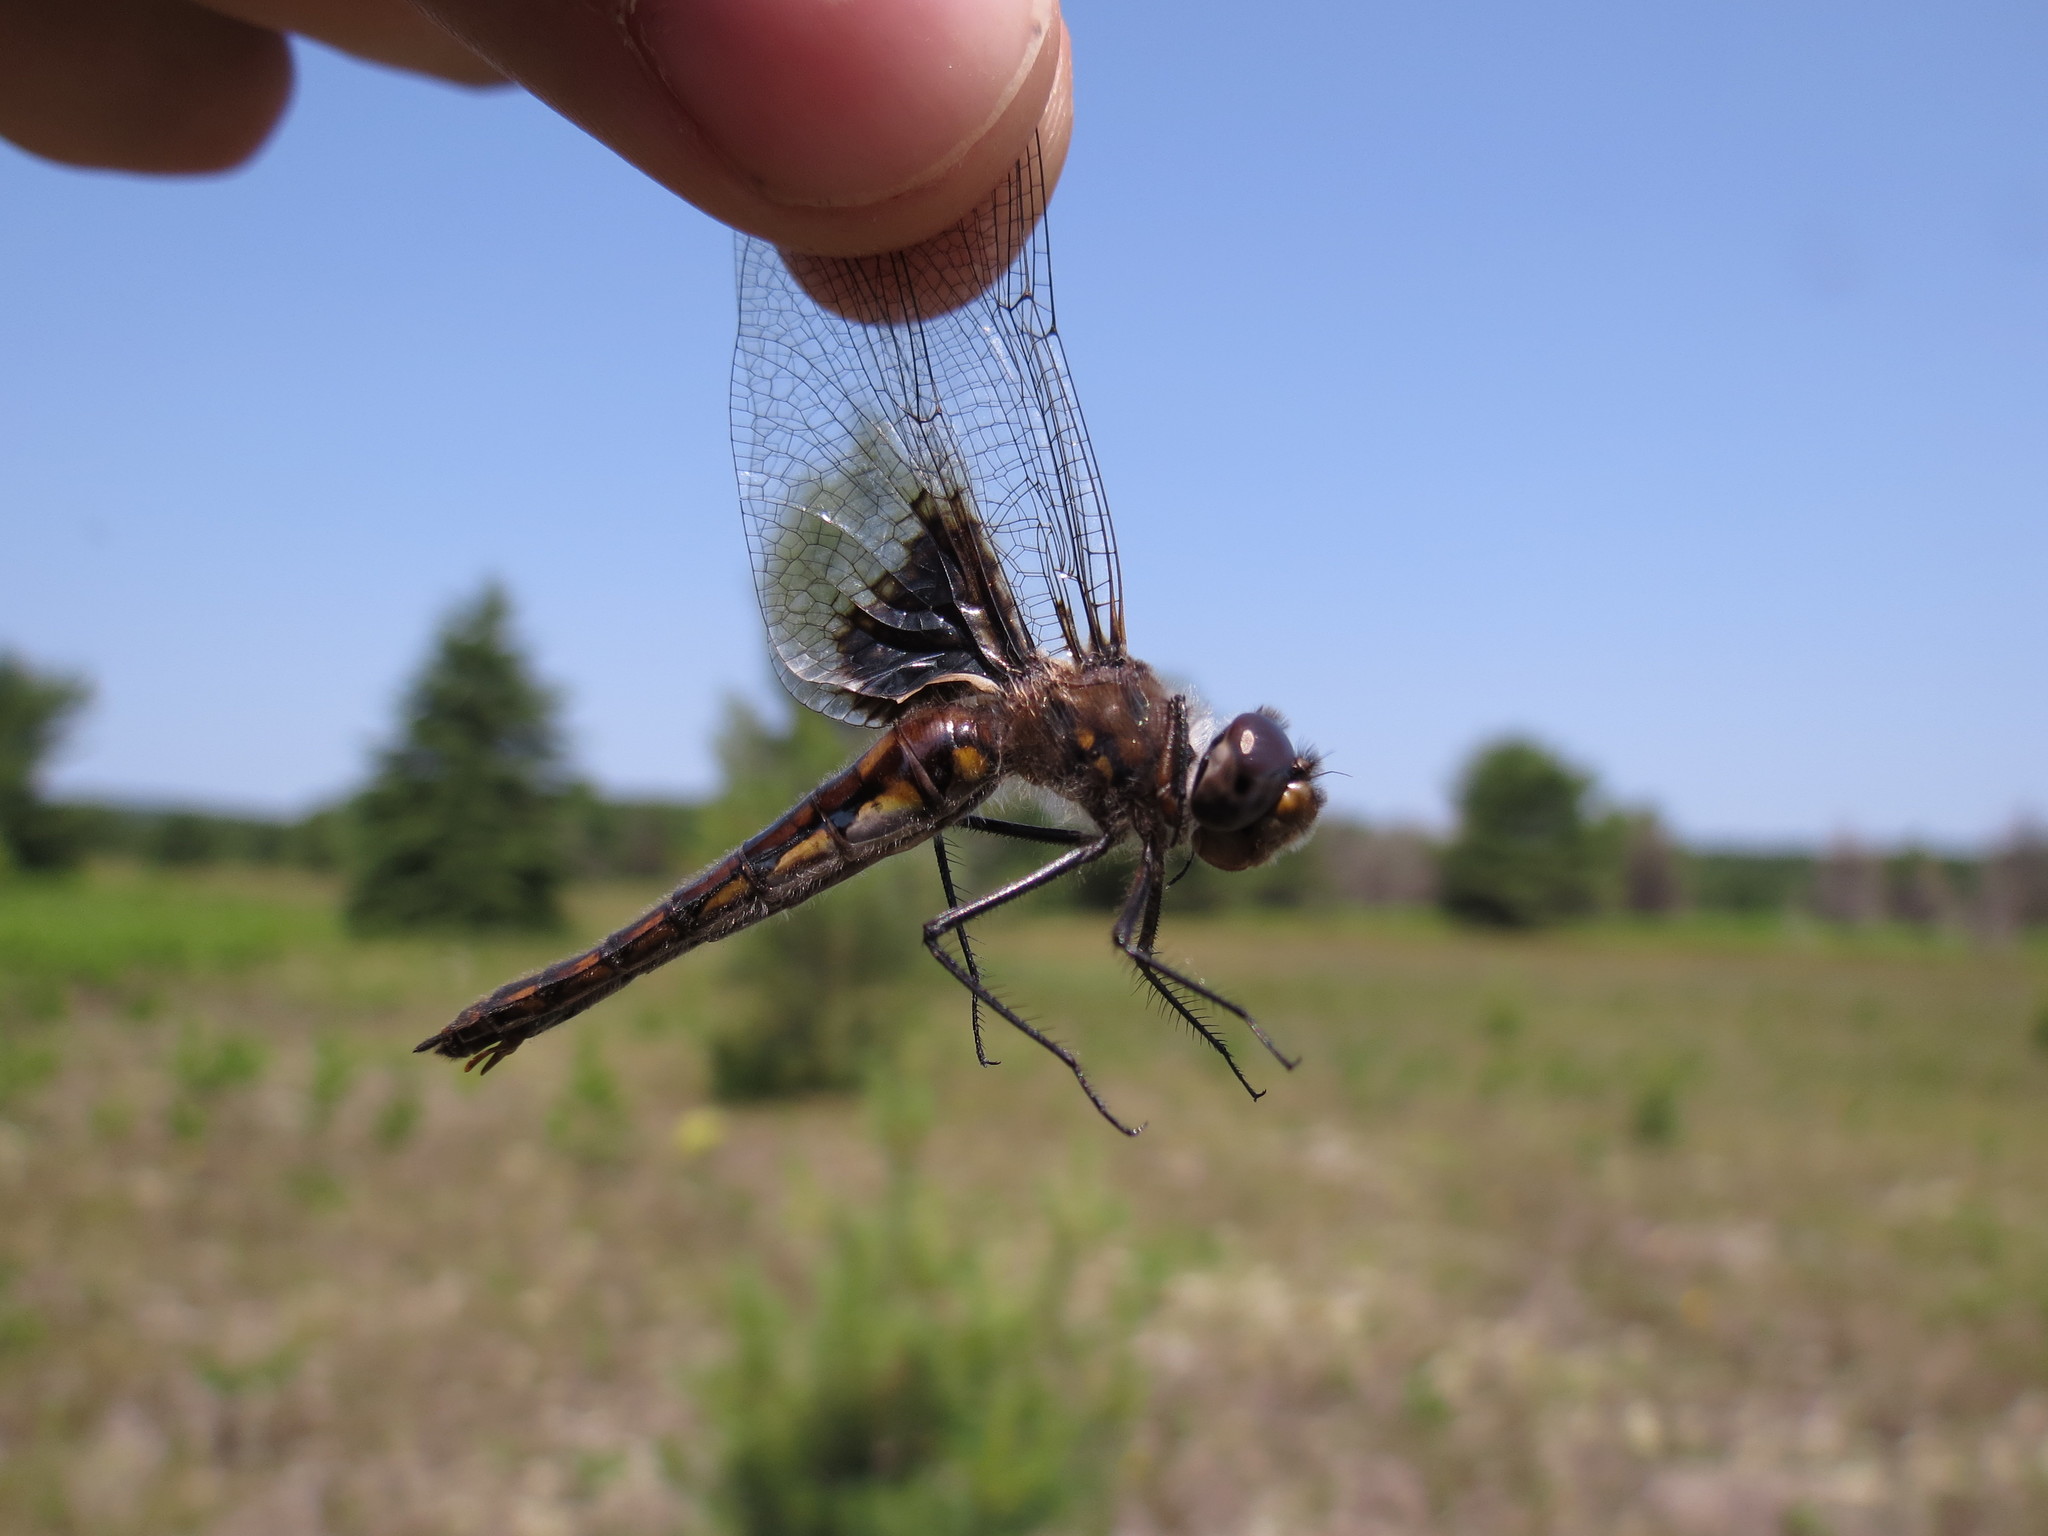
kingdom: Animalia
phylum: Arthropoda
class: Insecta
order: Odonata
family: Corduliidae
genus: Epitheca
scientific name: Epitheca cynosura
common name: Common baskettail
